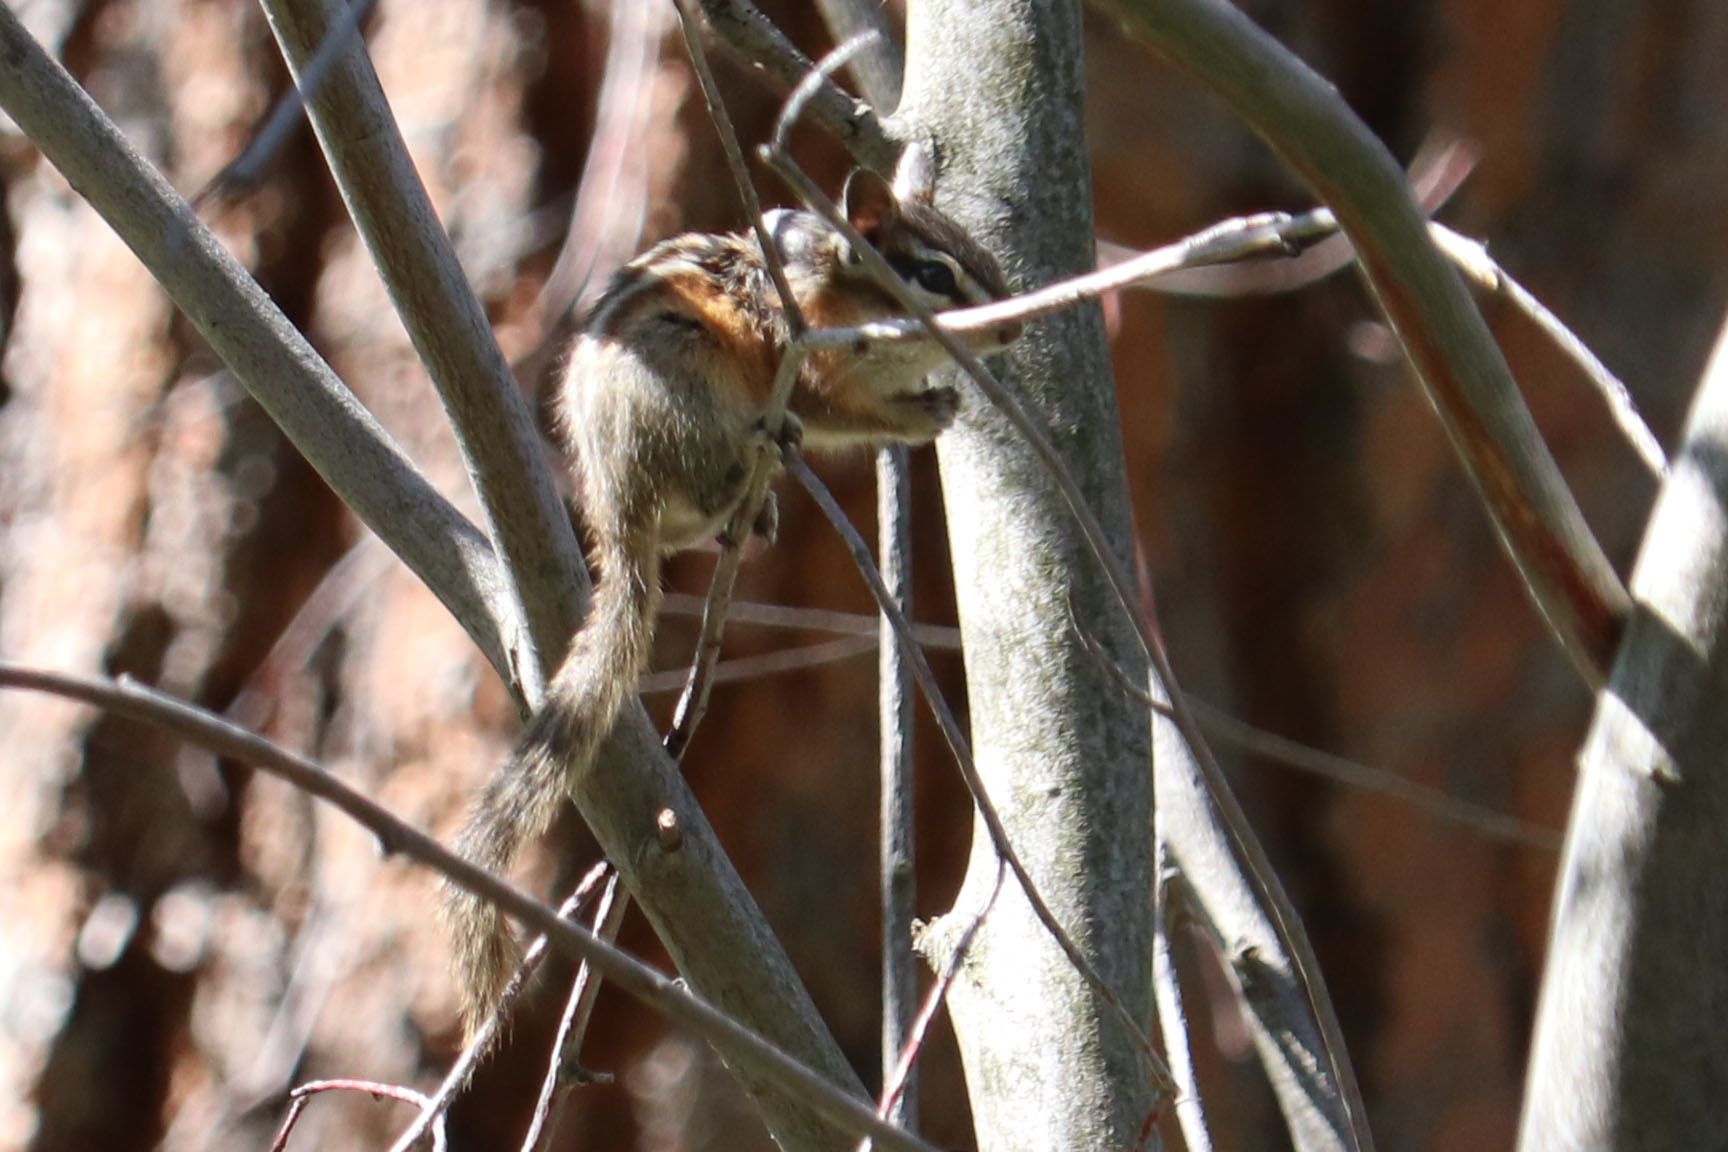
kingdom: Animalia
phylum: Chordata
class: Mammalia
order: Rodentia
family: Sciuridae
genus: Tamias
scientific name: Tamias amoenus
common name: Yellow-pine chipmunk
